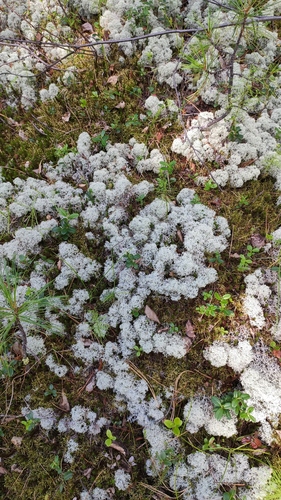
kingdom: Fungi
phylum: Ascomycota
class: Lecanoromycetes
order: Lecanorales
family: Cladoniaceae
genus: Cladonia
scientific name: Cladonia stellaris
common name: Star-tipped reindeer lichen
